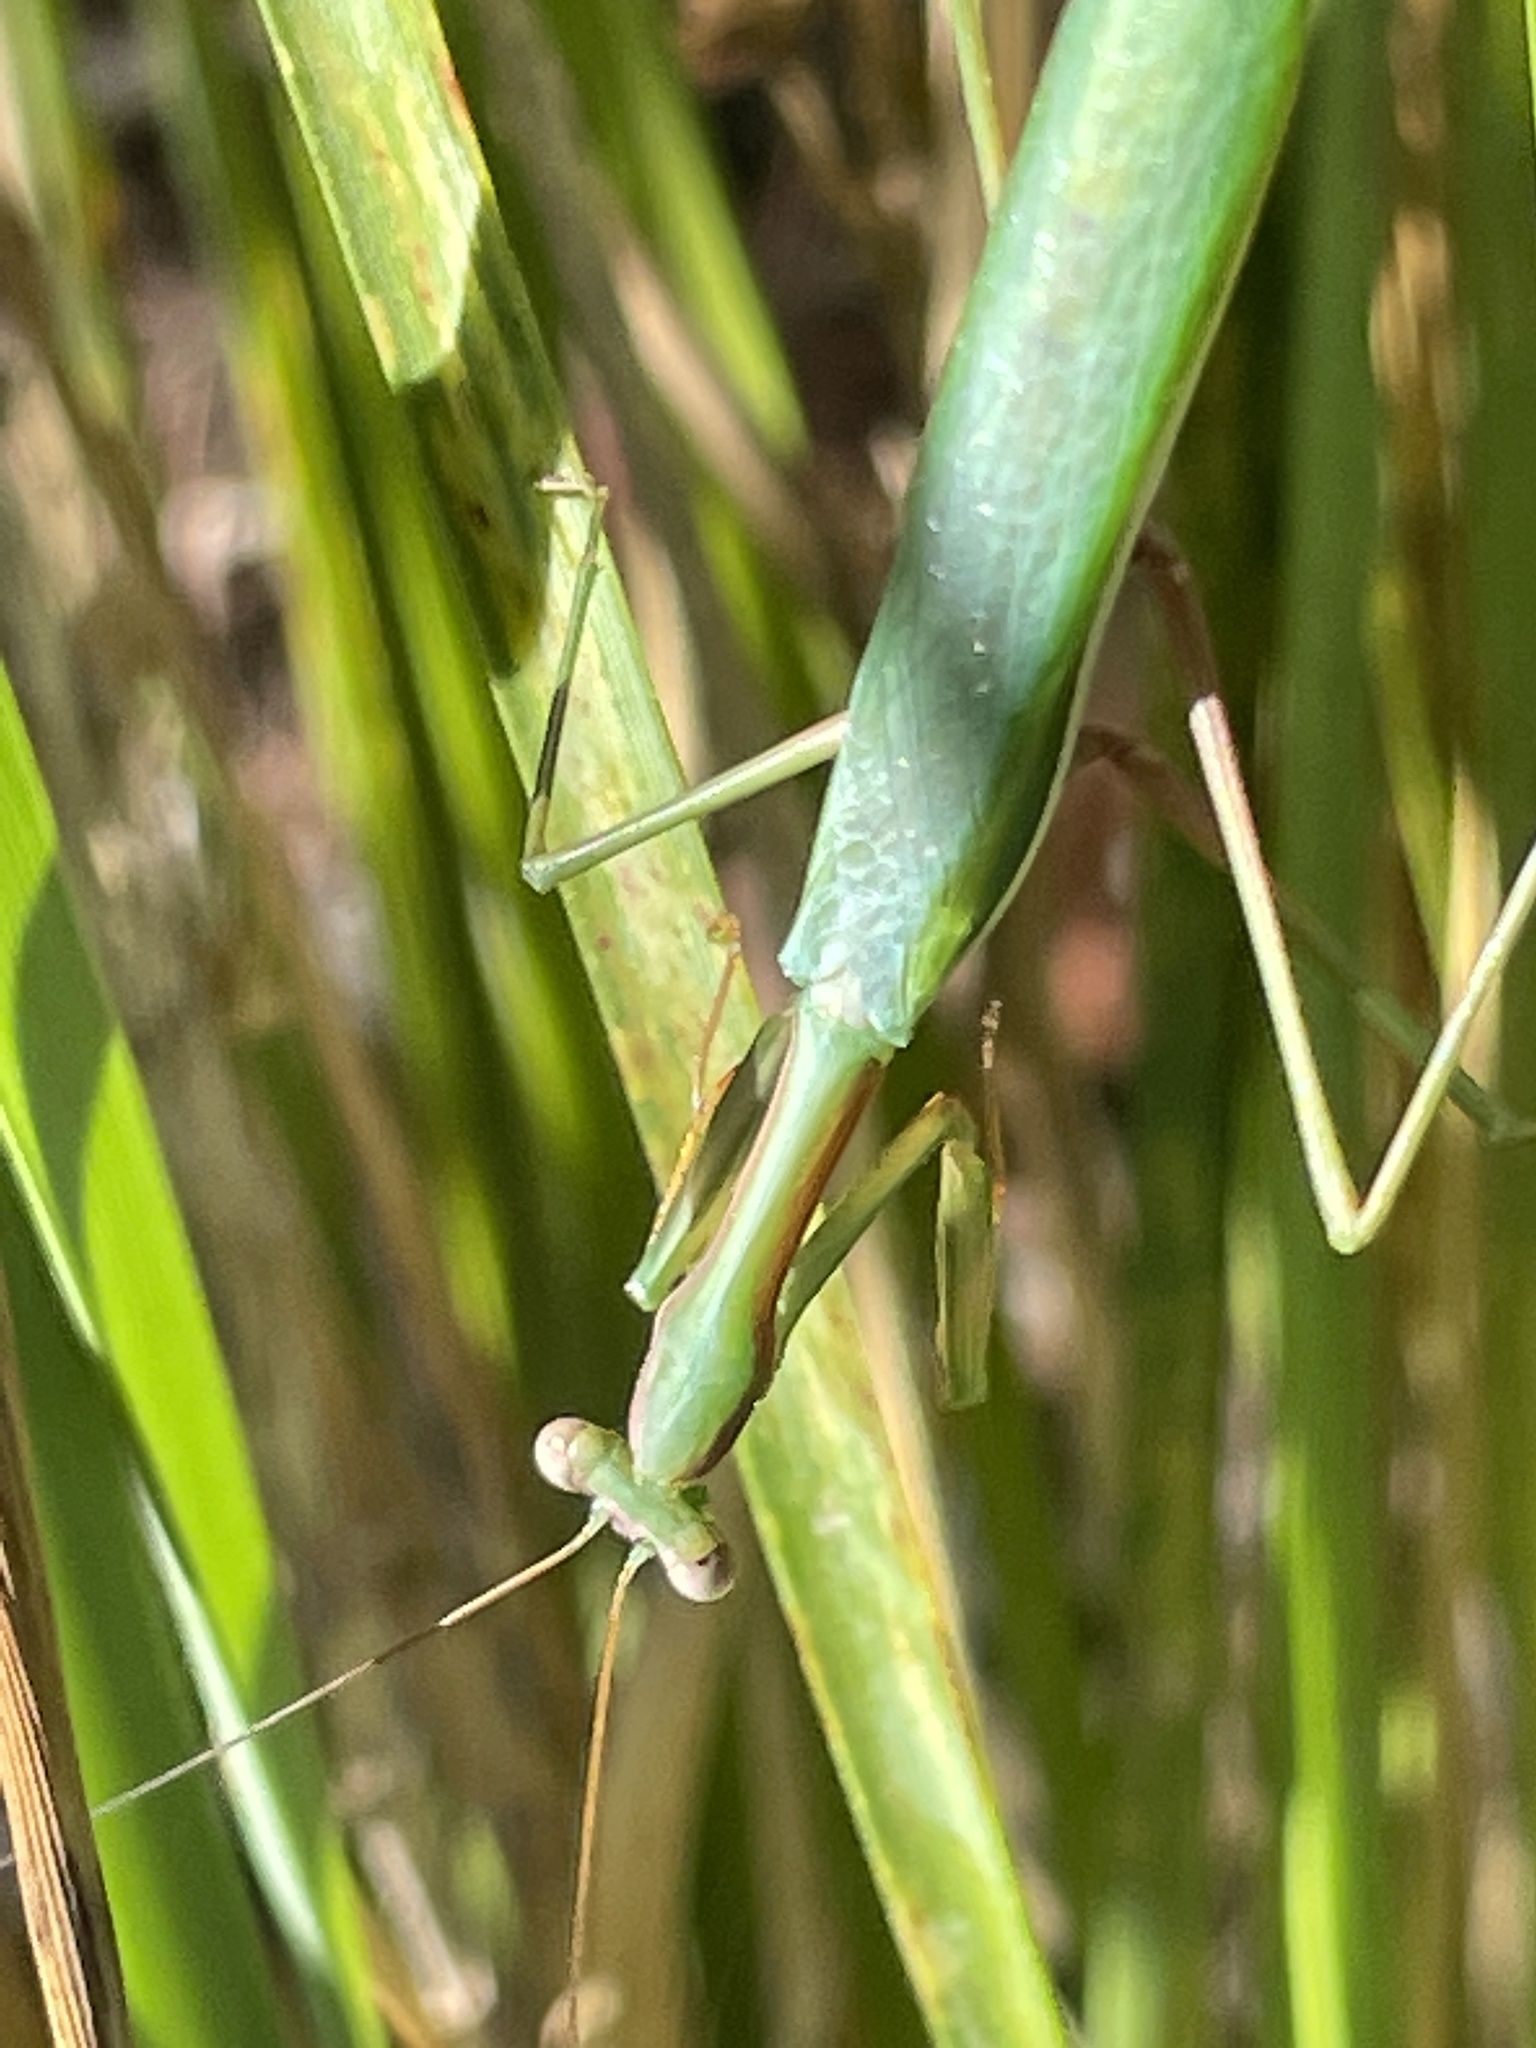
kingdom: Animalia
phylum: Arthropoda
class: Insecta
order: Mantodea
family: Mantidae
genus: Pseudomantis
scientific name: Pseudomantis albofimbriata
